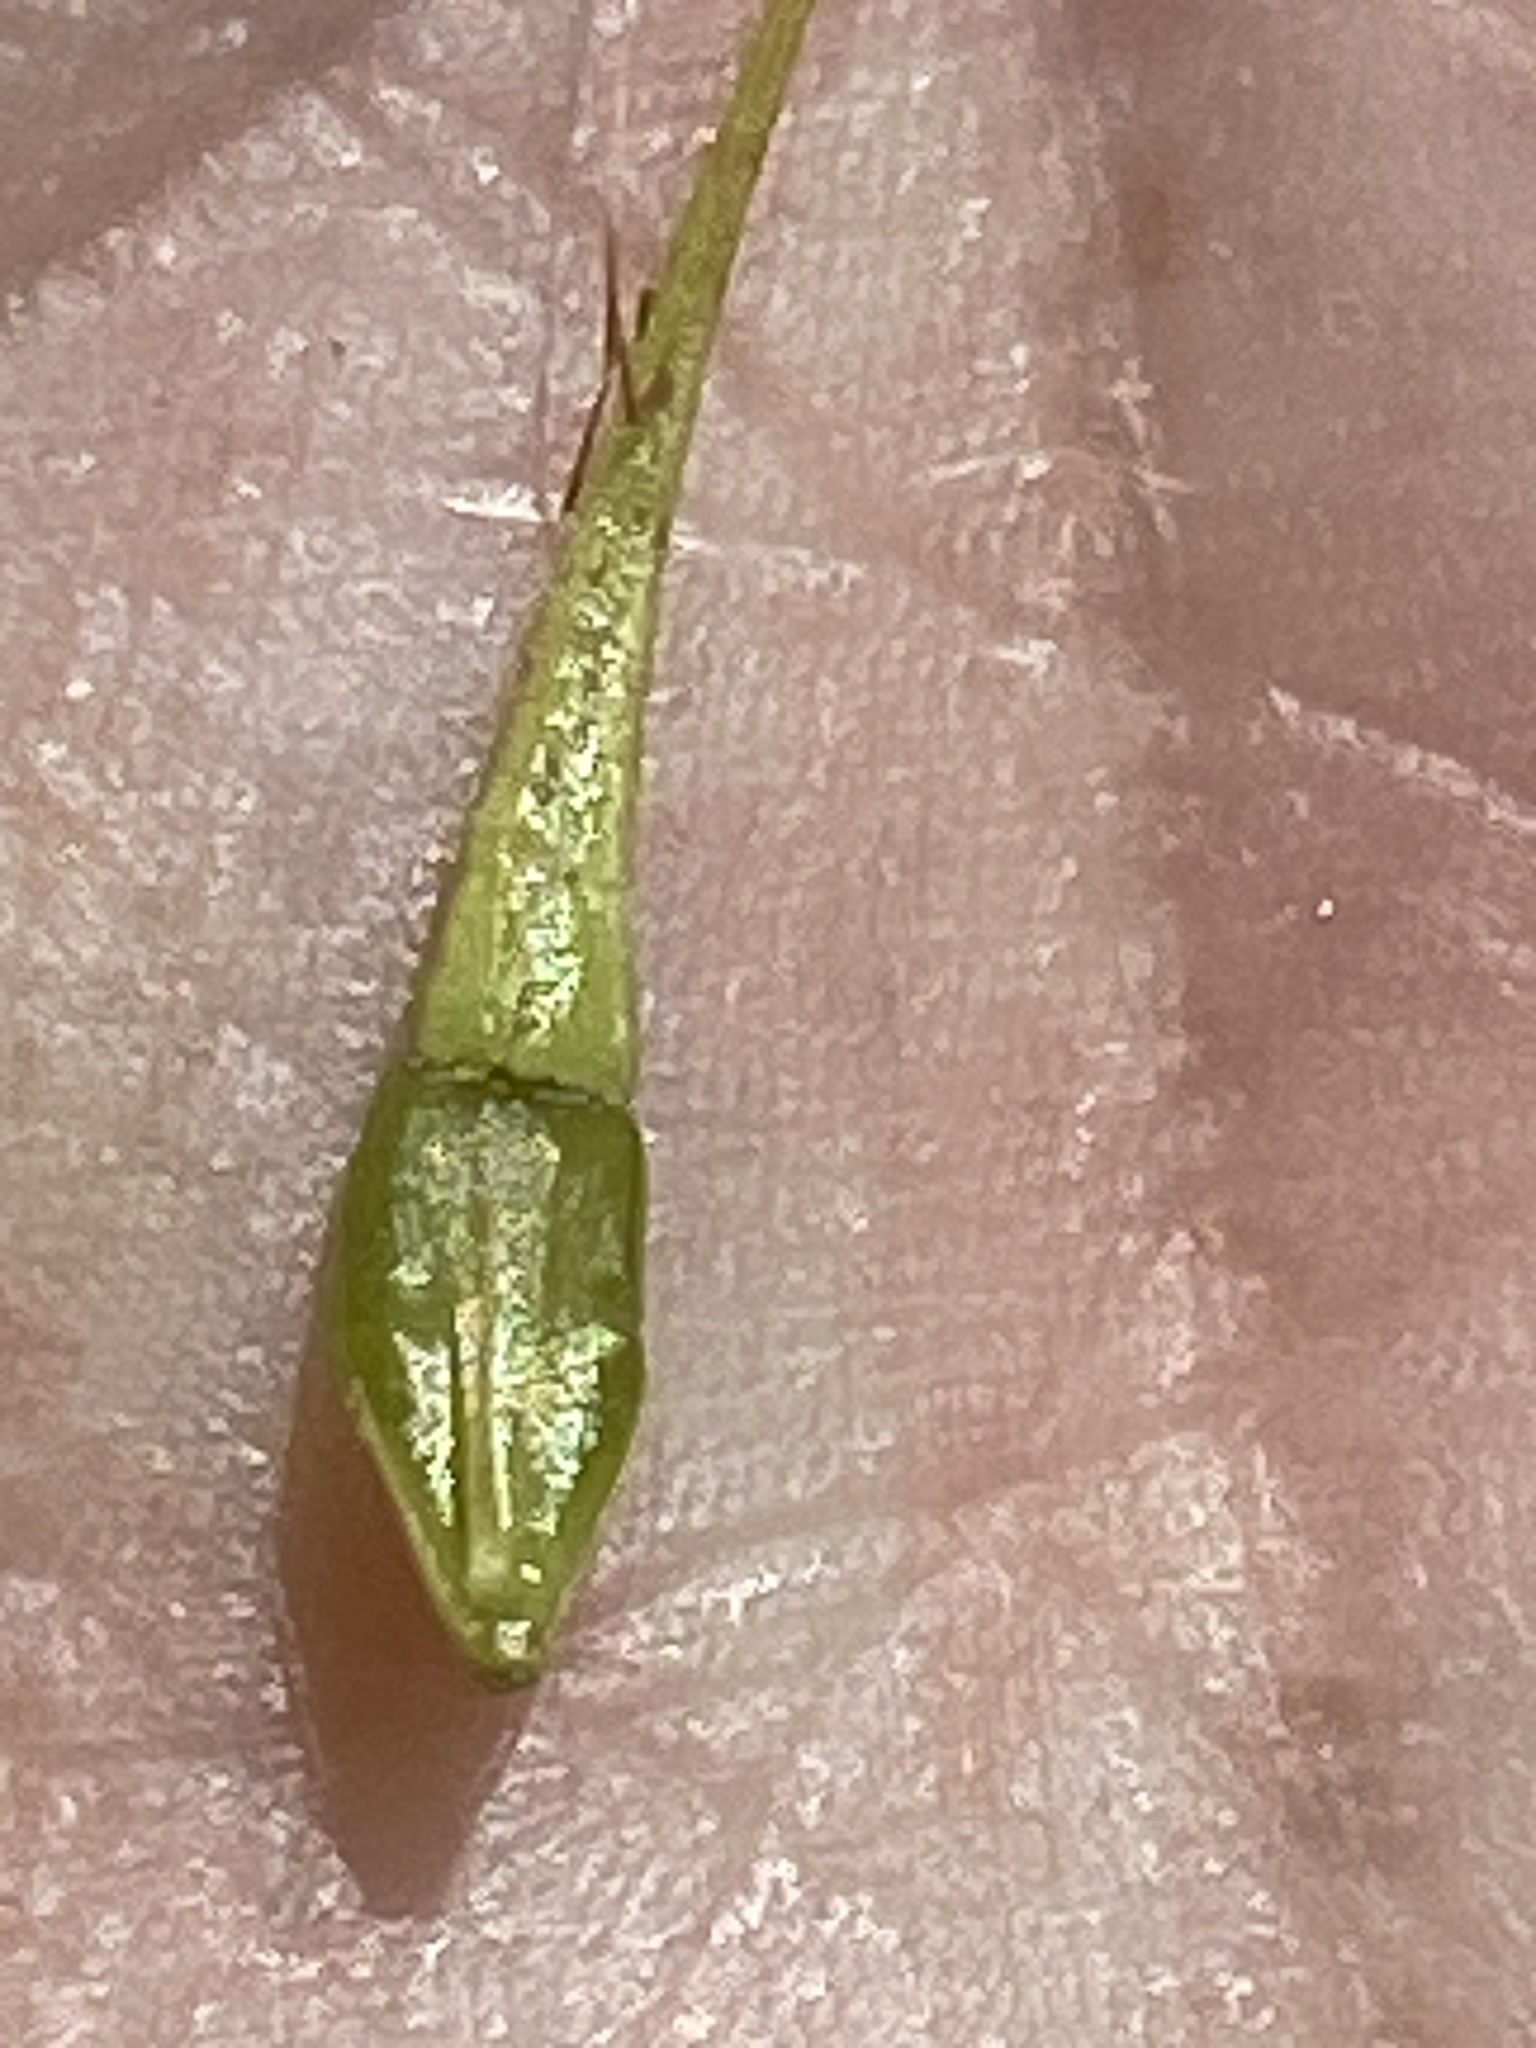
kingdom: Plantae
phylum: Tracheophyta
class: Liliopsida
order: Poales
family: Cyperaceae
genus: Rhynchospora
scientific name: Rhynchospora corniculata
